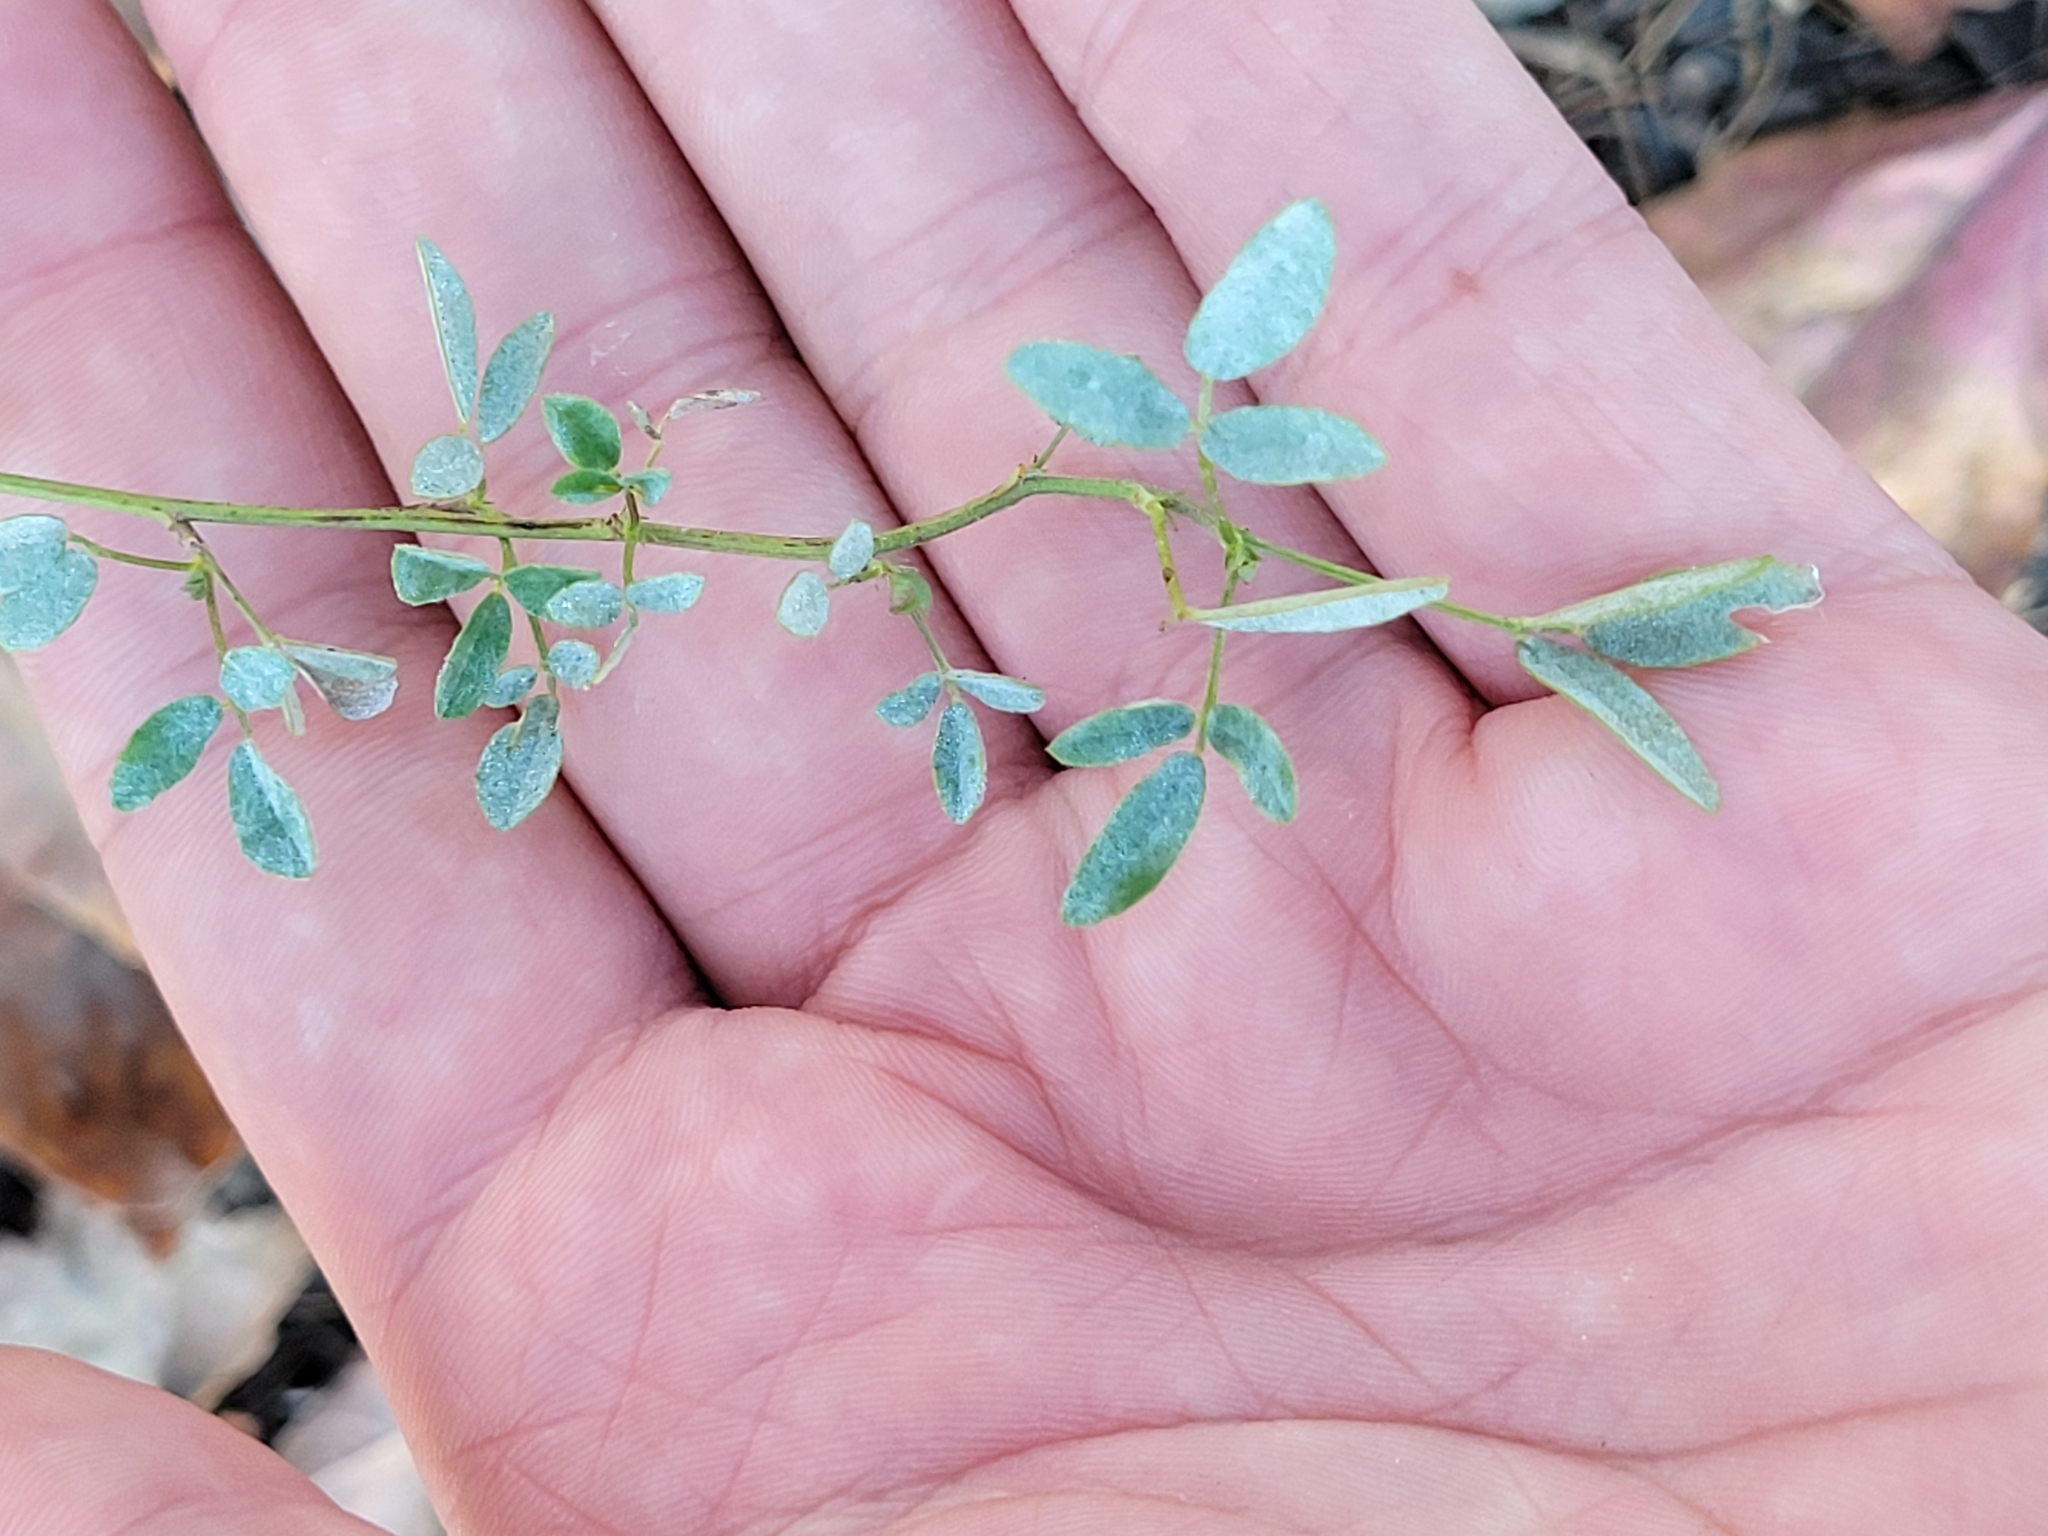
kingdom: Plantae
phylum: Tracheophyta
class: Magnoliopsida
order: Fabales
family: Fabaceae
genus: Melilotus
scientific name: Melilotus officinalis
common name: Sweetclover
